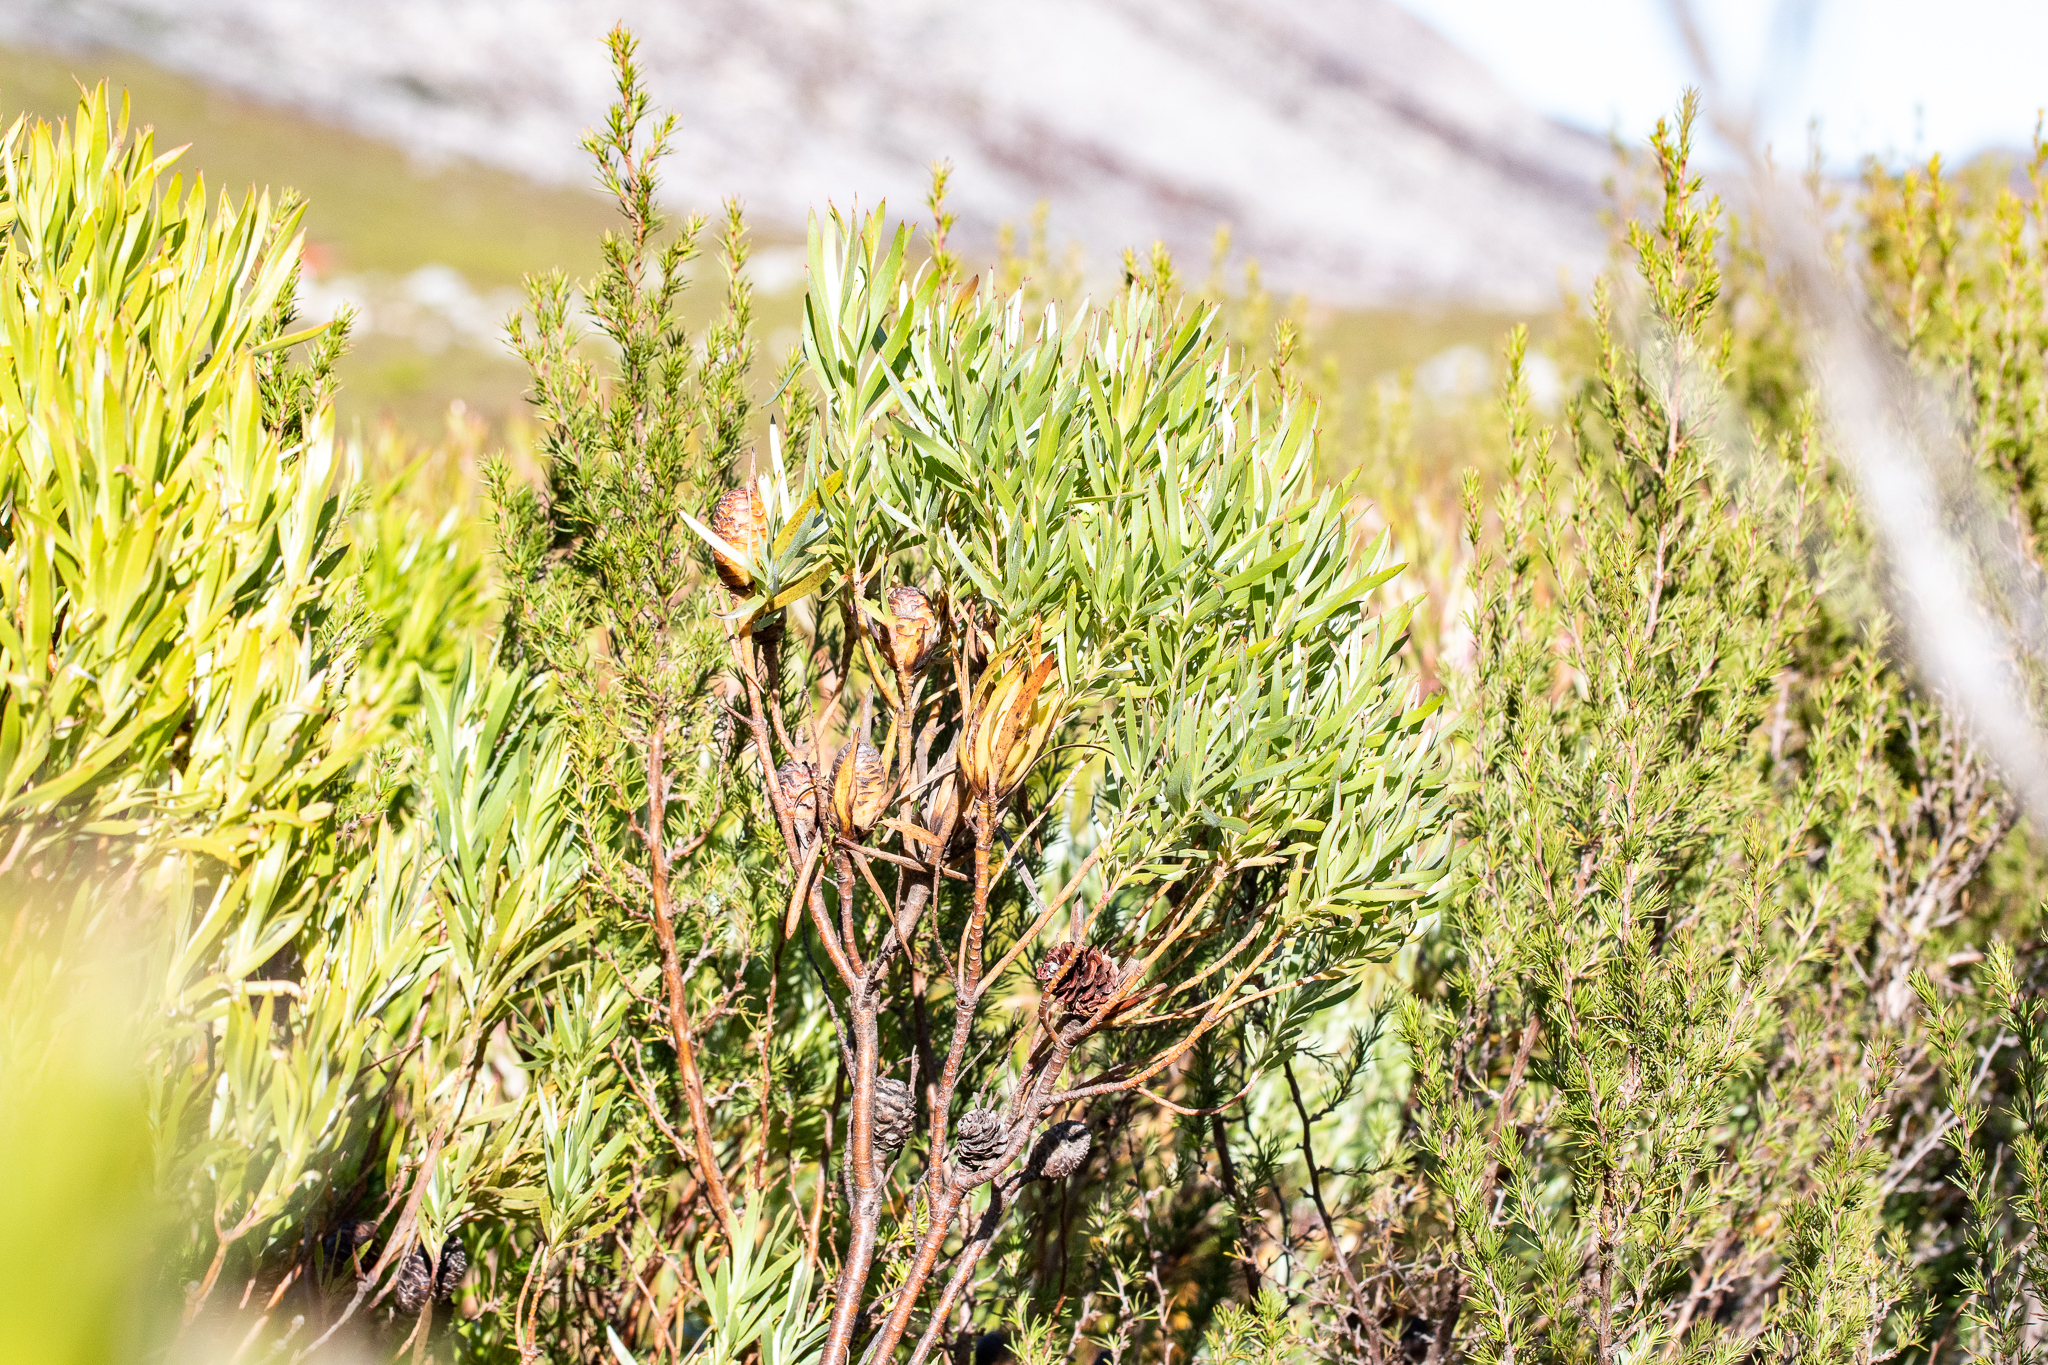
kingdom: Plantae
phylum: Tracheophyta
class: Magnoliopsida
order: Proteales
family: Proteaceae
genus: Leucadendron
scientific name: Leucadendron xanthoconus
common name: Sickle-leaf conebush
